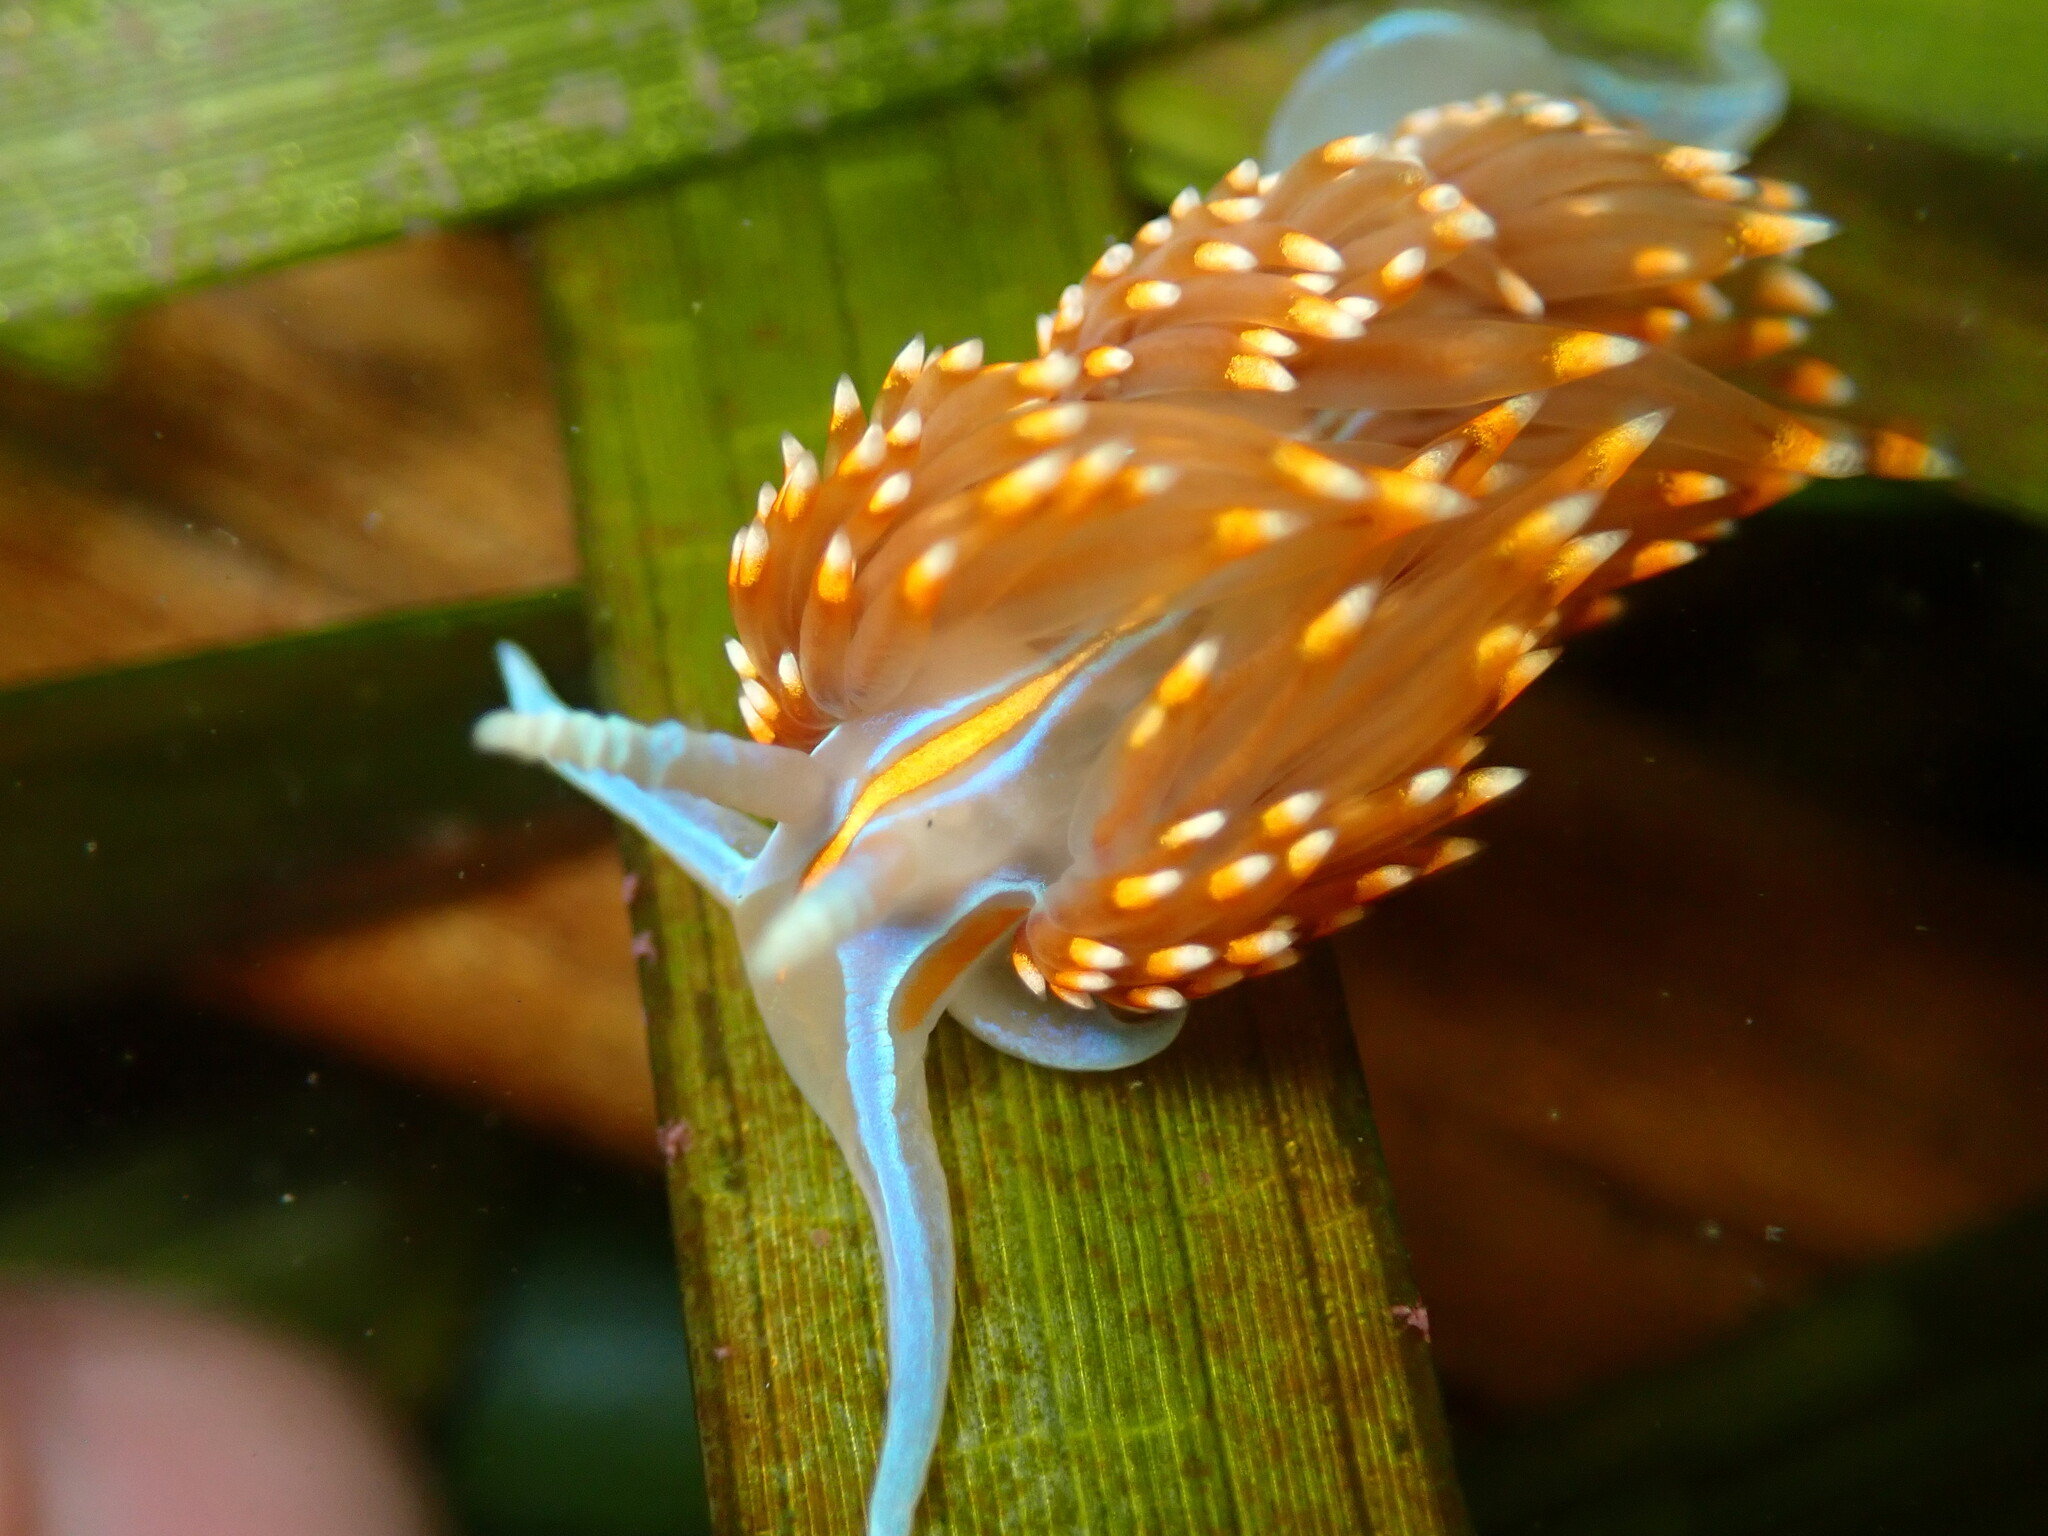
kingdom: Animalia
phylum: Mollusca
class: Gastropoda
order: Nudibranchia
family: Myrrhinidae
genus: Hermissenda
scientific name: Hermissenda opalescens
